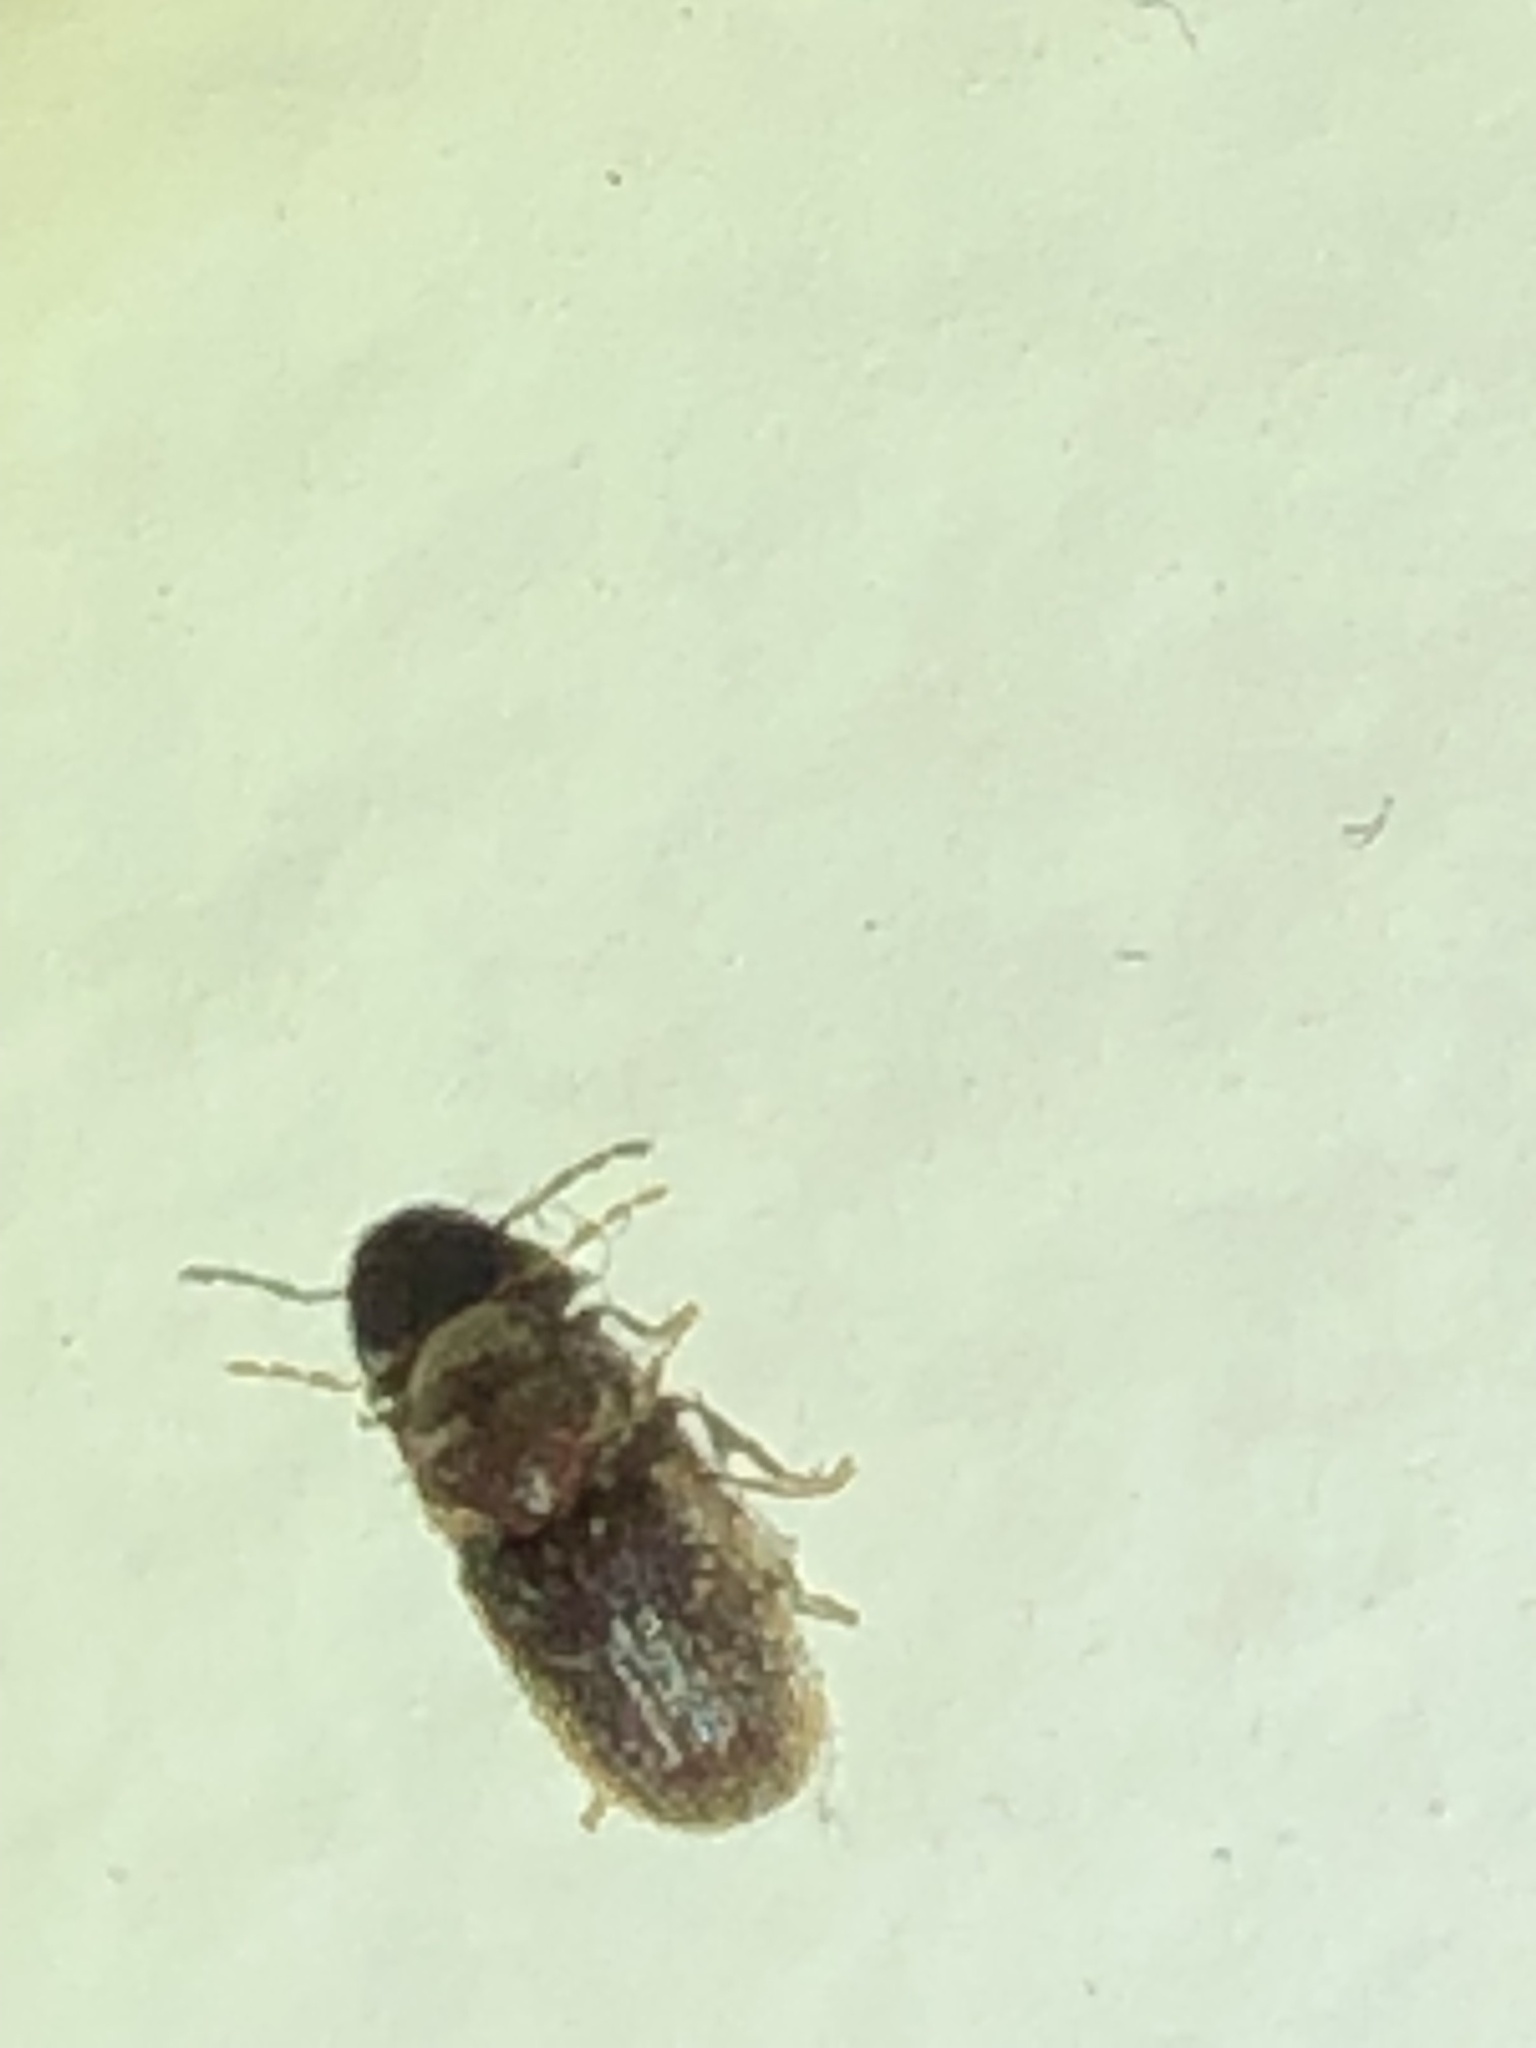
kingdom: Animalia
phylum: Arthropoda
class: Insecta
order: Coleoptera
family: Anobiidae
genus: Stegobium
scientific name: Stegobium paniceum
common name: Drugstore beetle
